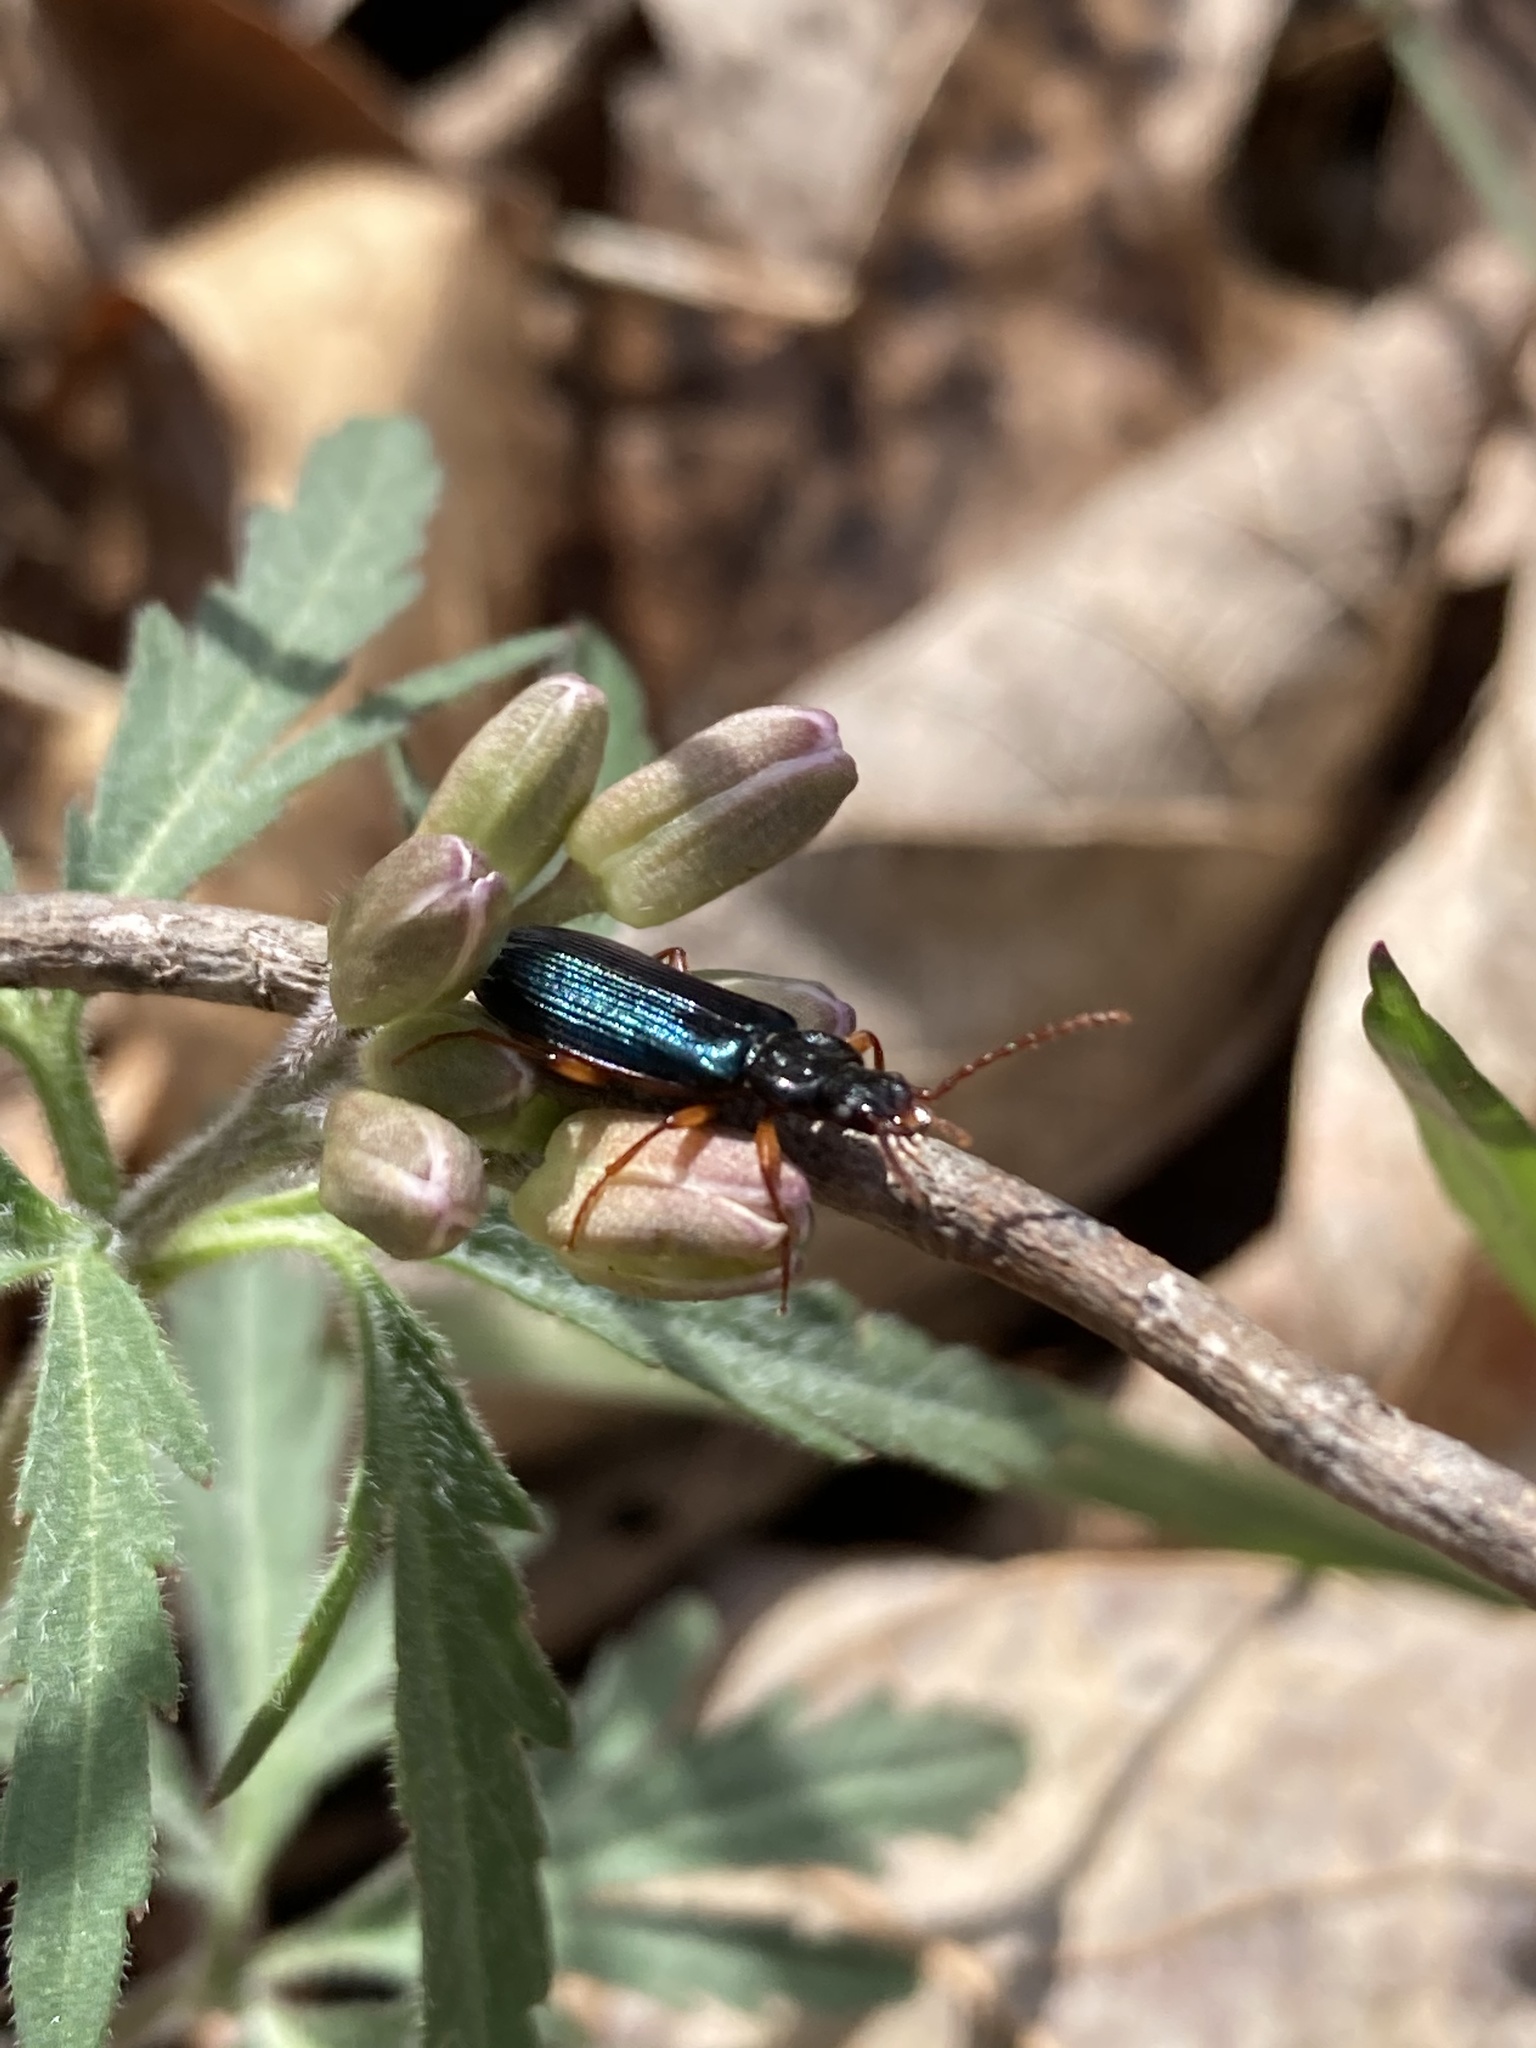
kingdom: Animalia
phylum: Arthropoda
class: Insecta
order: Coleoptera
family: Pythidae
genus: Pytho
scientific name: Pytho americanus
